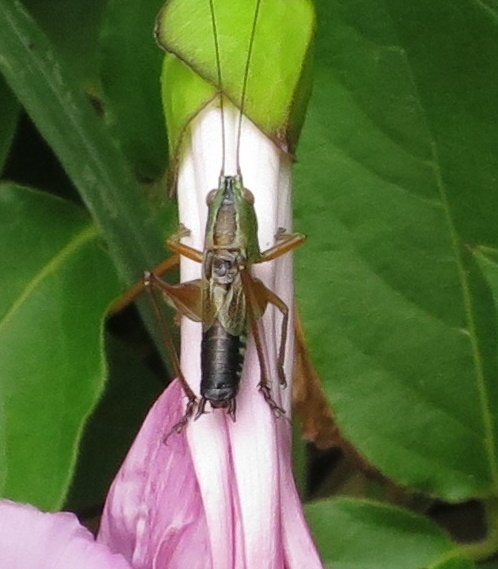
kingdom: Animalia
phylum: Arthropoda
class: Insecta
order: Orthoptera
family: Tettigoniidae
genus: Conocephalus
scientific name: Conocephalus semivittatus
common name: Blackish meadow katydid
